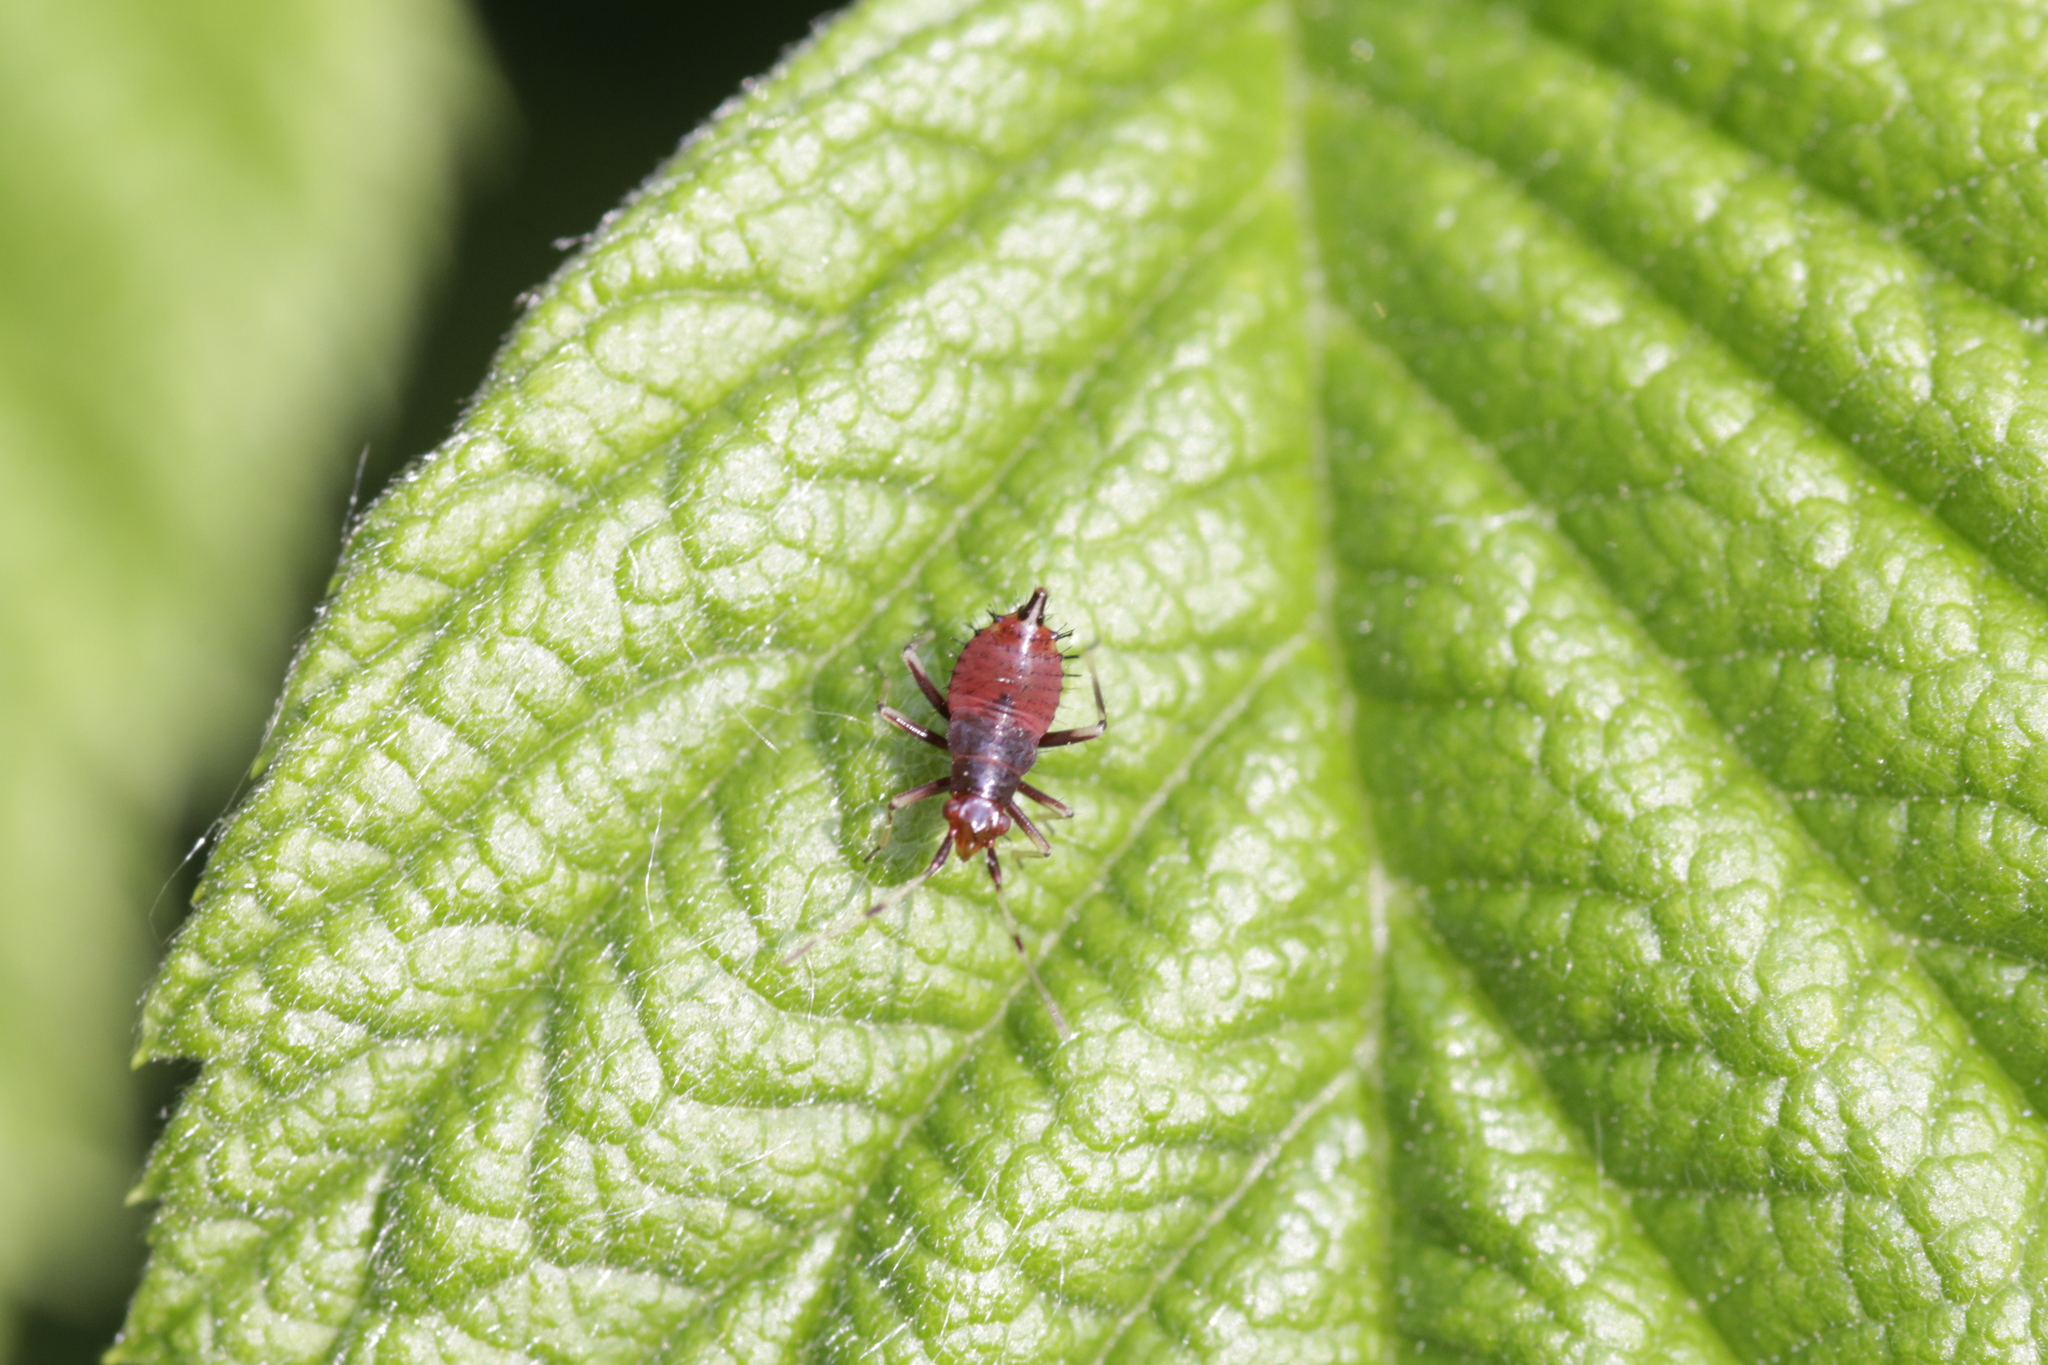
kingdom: Animalia
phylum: Arthropoda
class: Insecta
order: Hemiptera
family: Miridae
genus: Deraeocoris
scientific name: Deraeocoris ruber
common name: Plant bug
